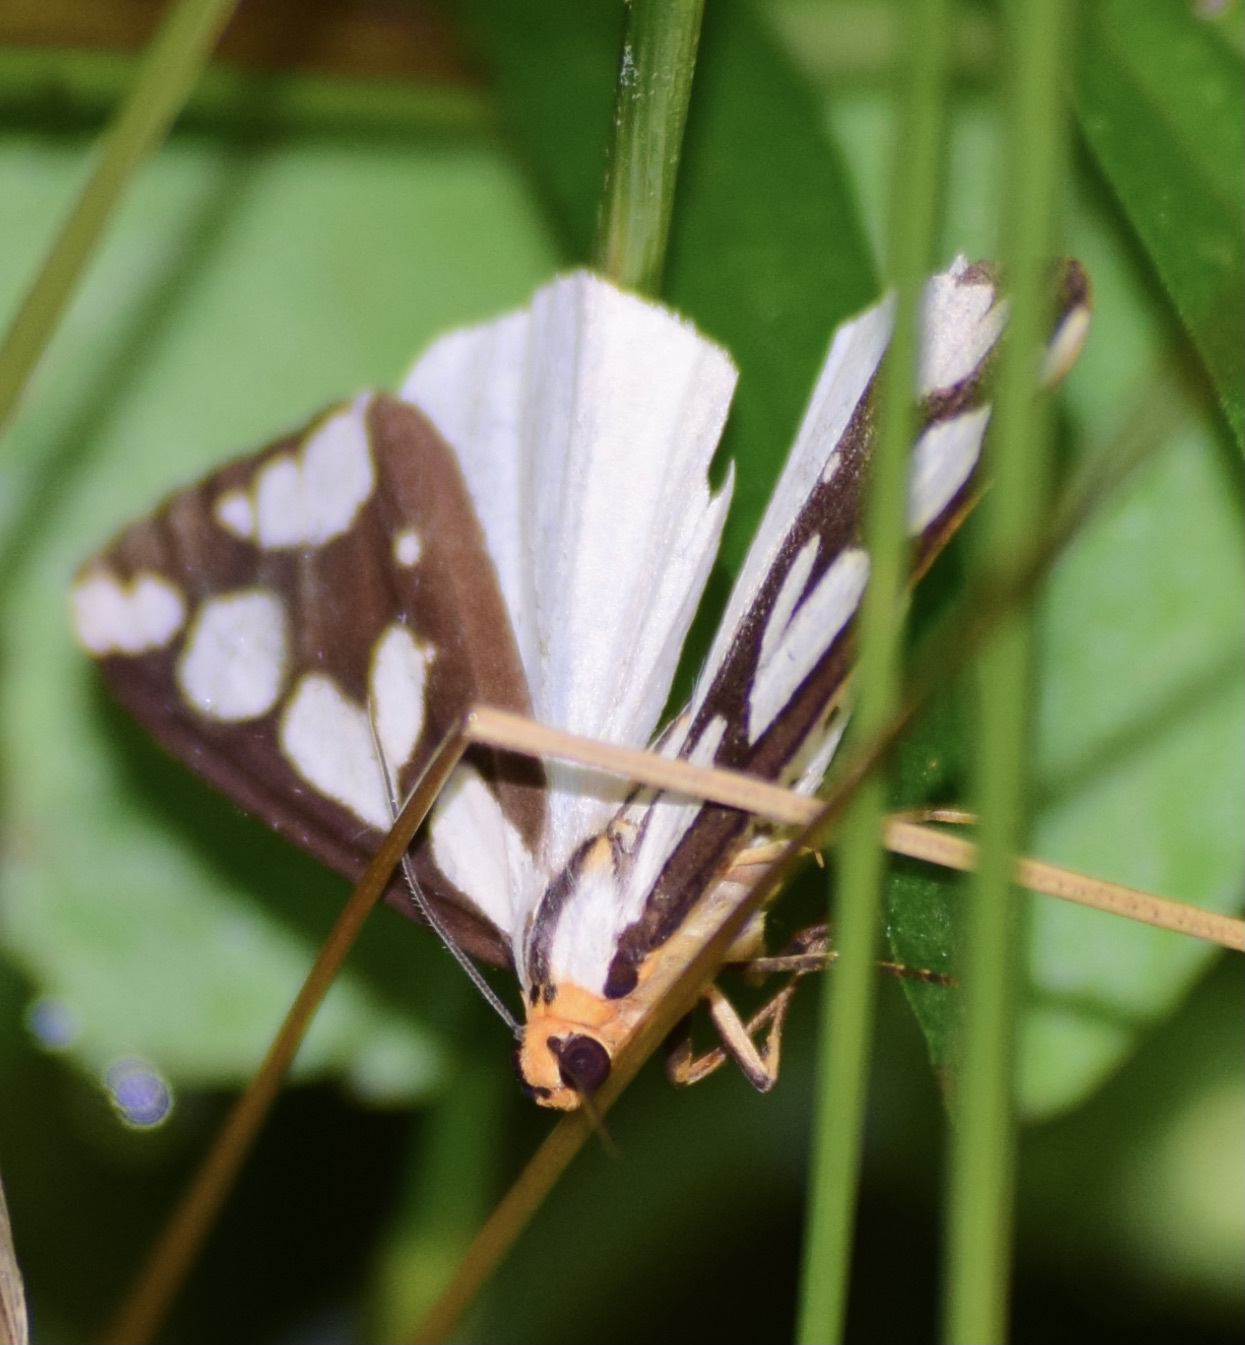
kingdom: Animalia
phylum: Arthropoda
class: Insecta
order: Lepidoptera
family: Erebidae
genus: Haploa
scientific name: Haploa confusa
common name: Confused haploa moth
